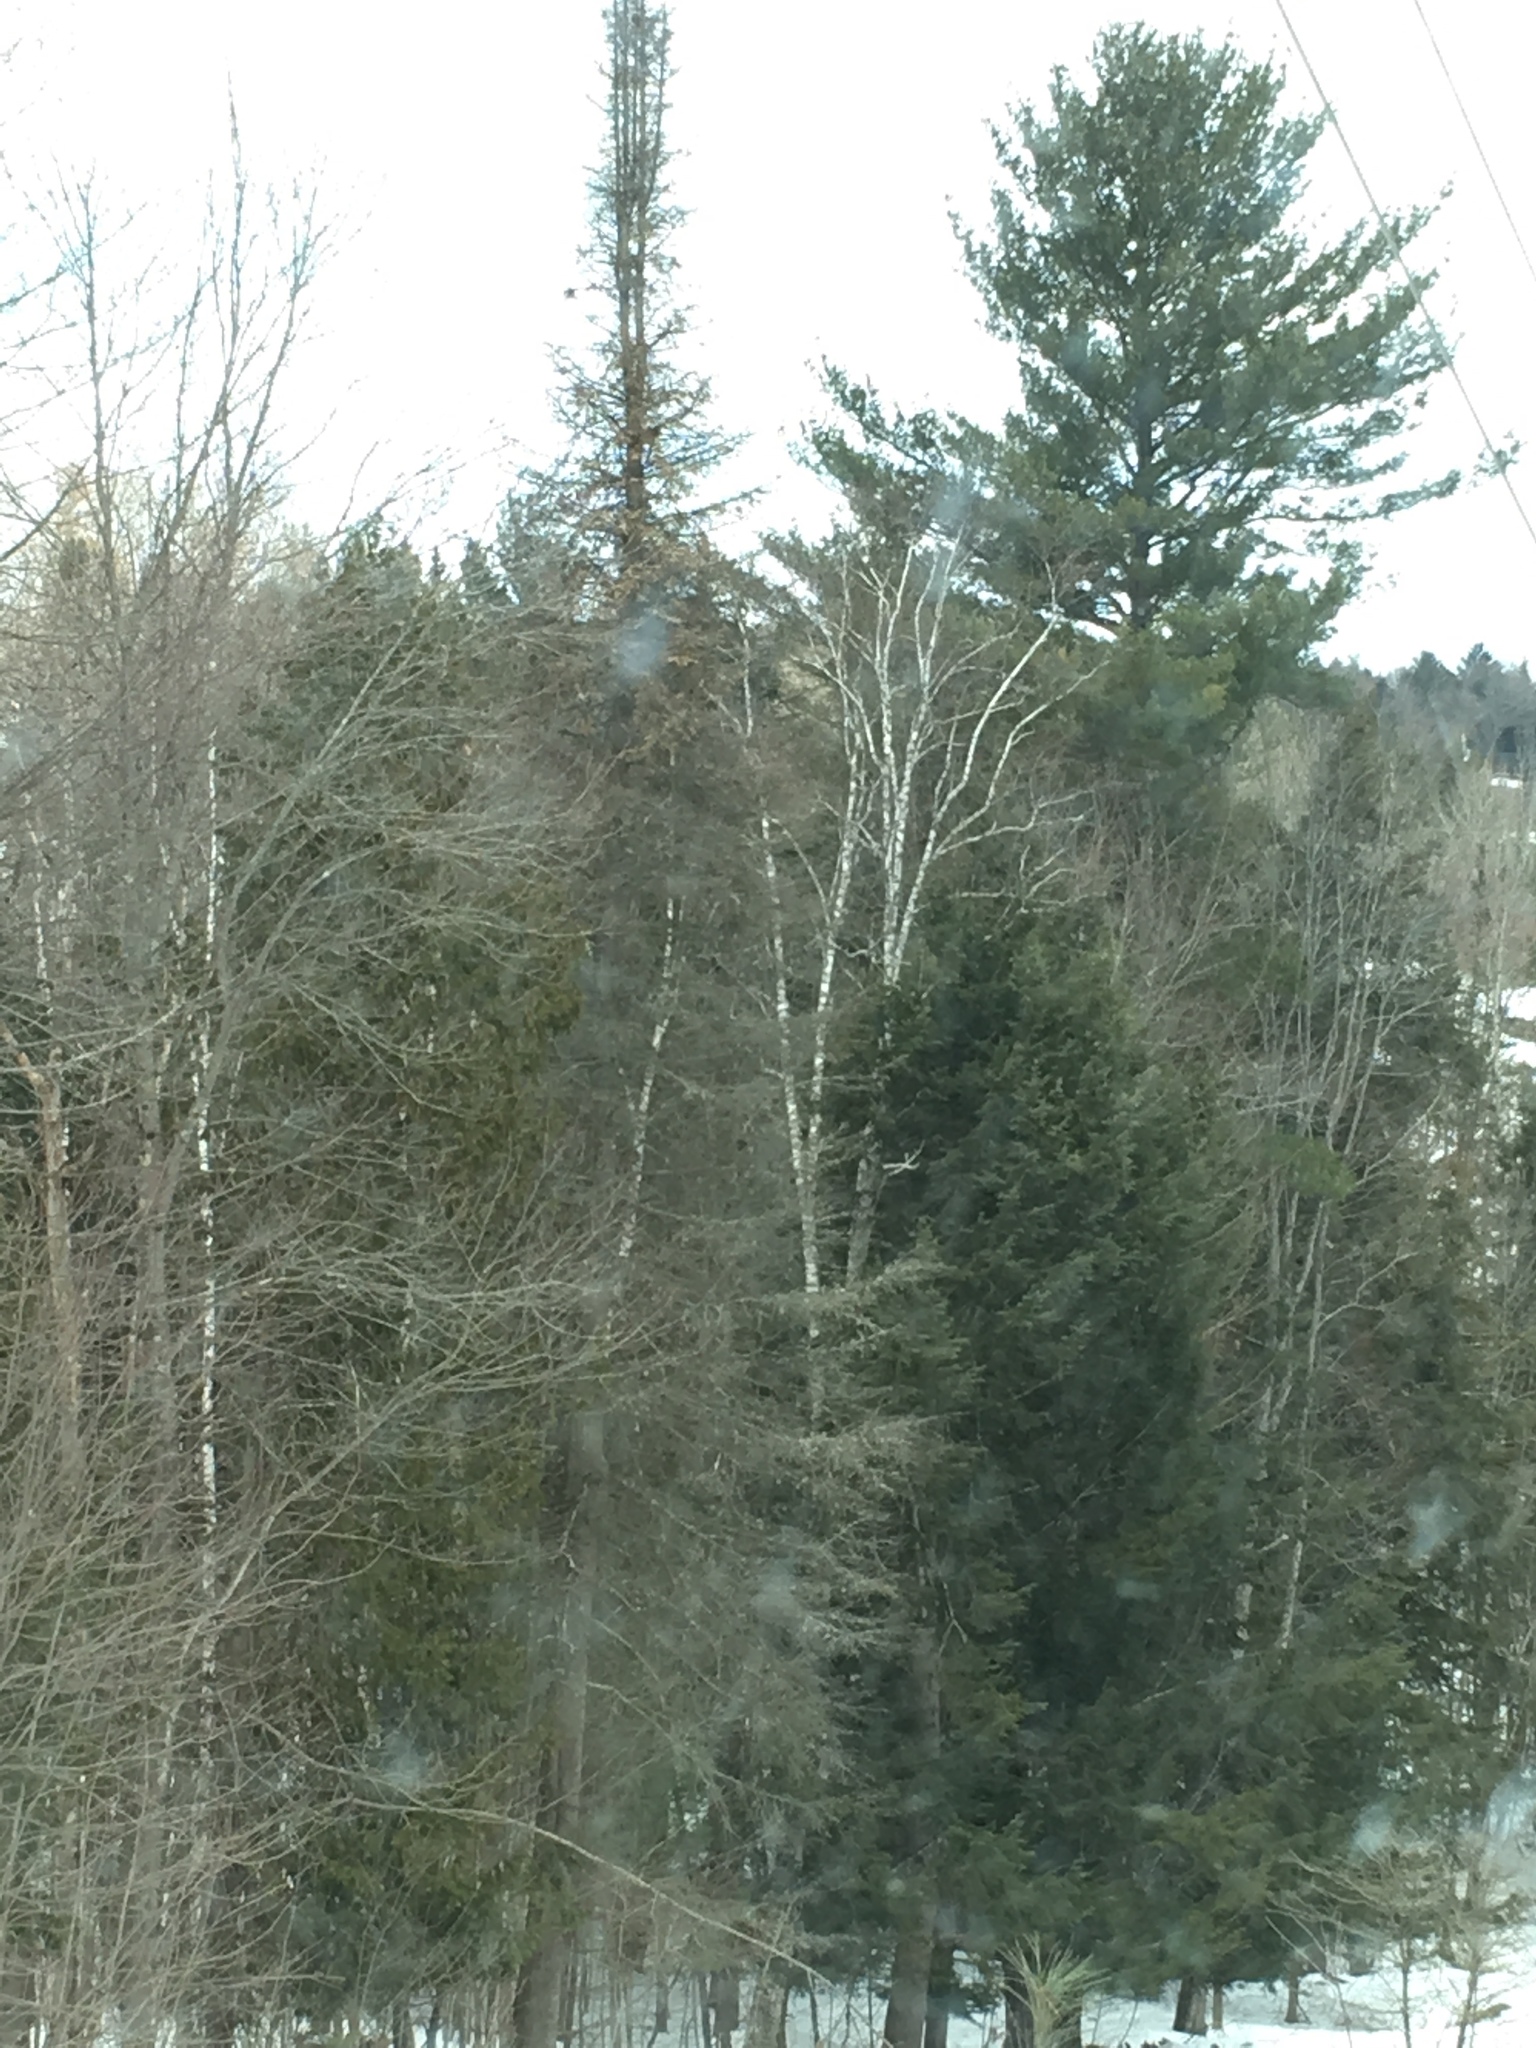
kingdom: Plantae
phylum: Tracheophyta
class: Pinopsida
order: Pinales
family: Pinaceae
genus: Abies
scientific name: Abies balsamea
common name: Balsam fir
